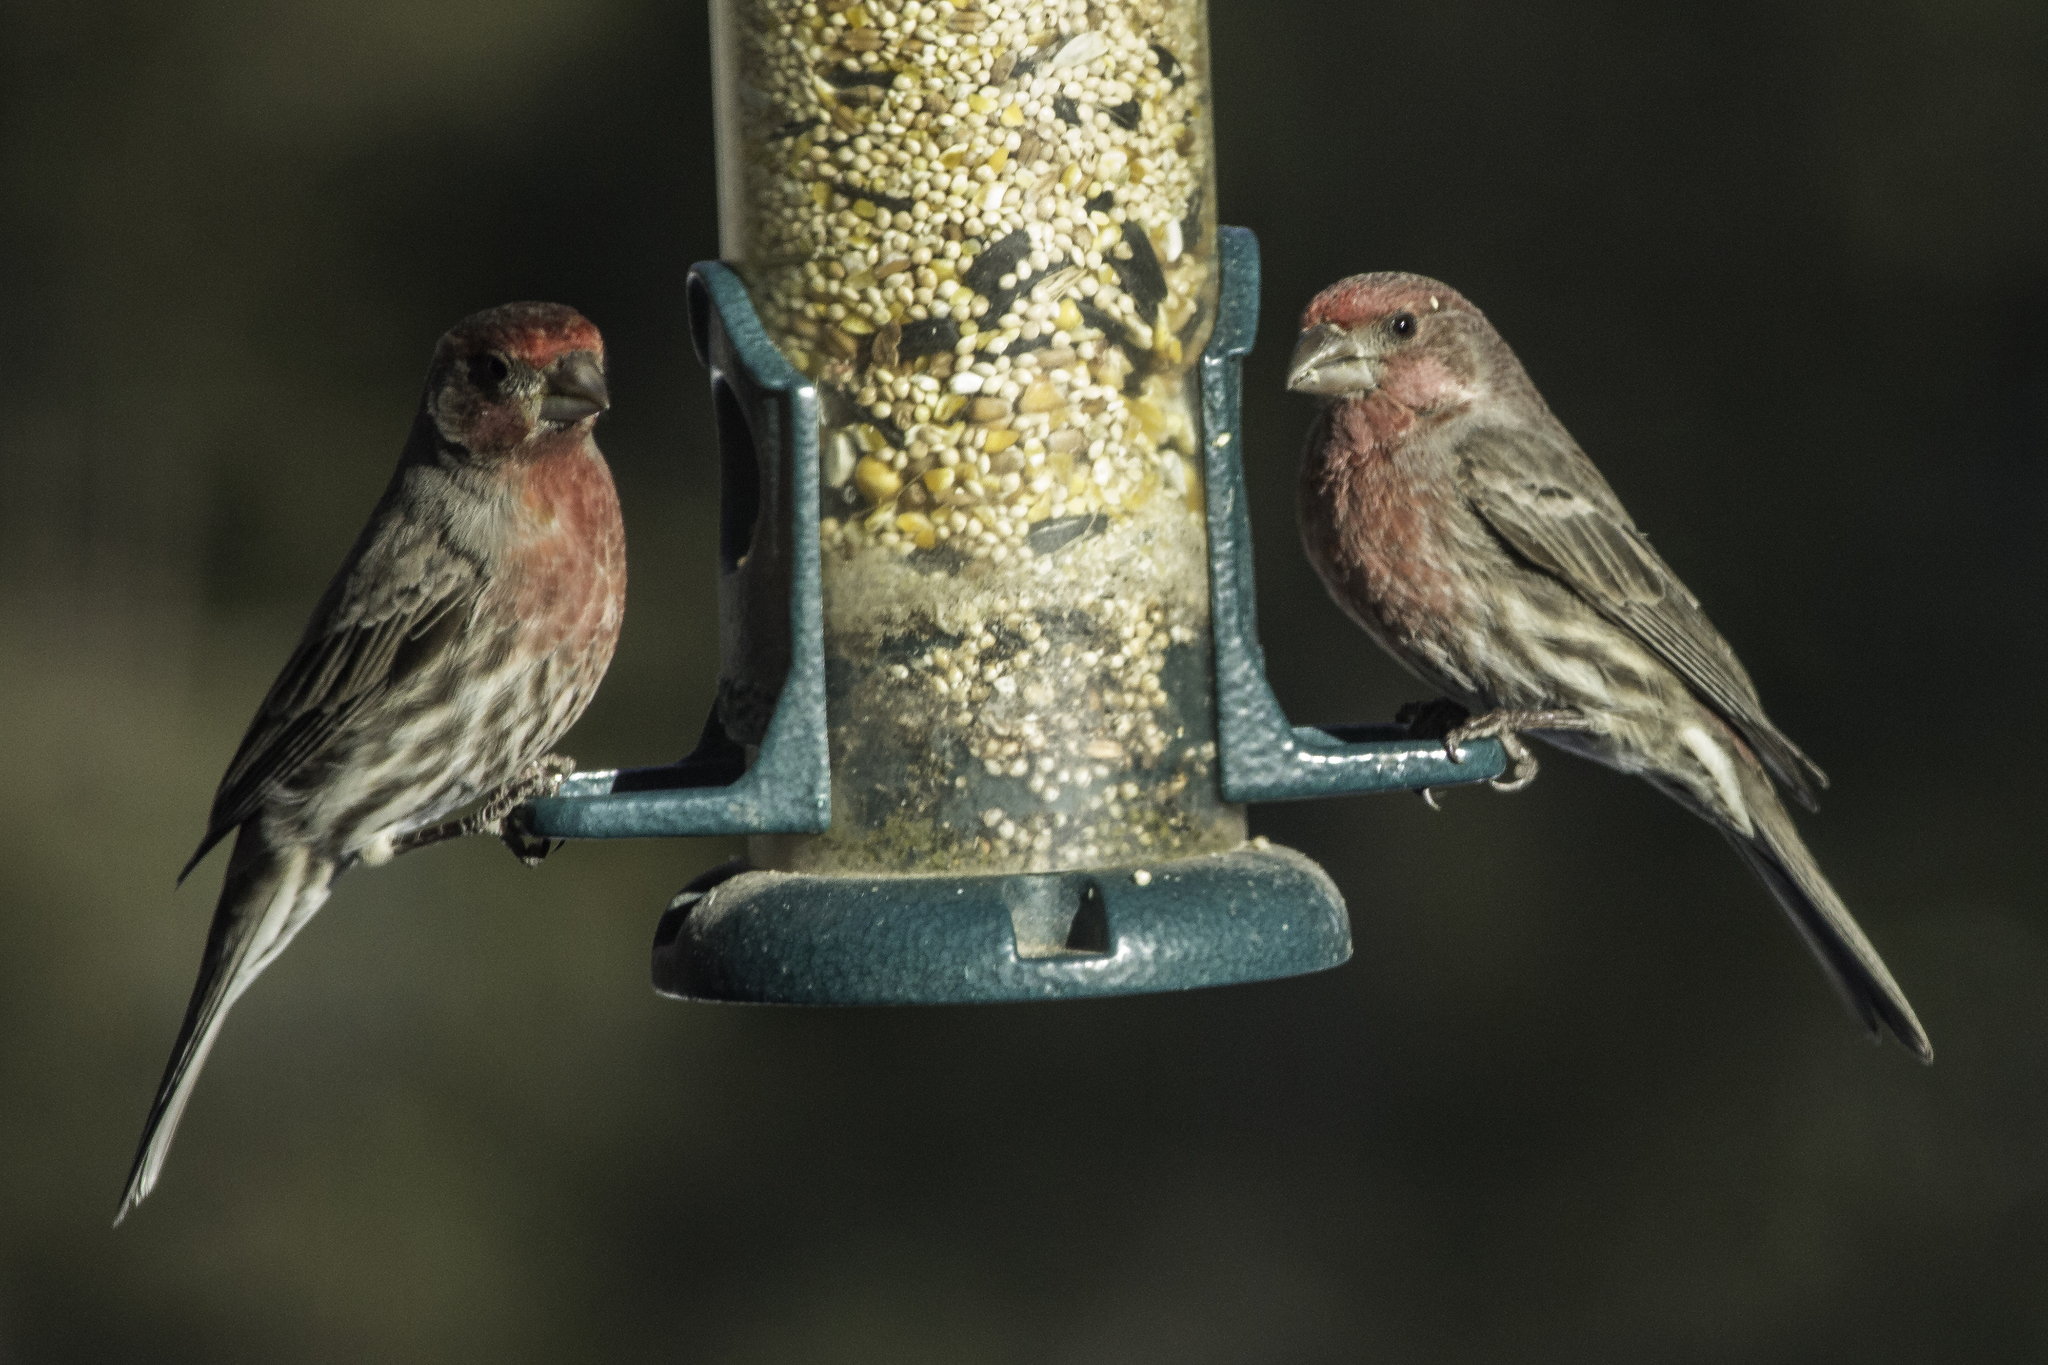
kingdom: Animalia
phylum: Chordata
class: Aves
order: Passeriformes
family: Fringillidae
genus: Haemorhous
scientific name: Haemorhous mexicanus
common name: House finch
